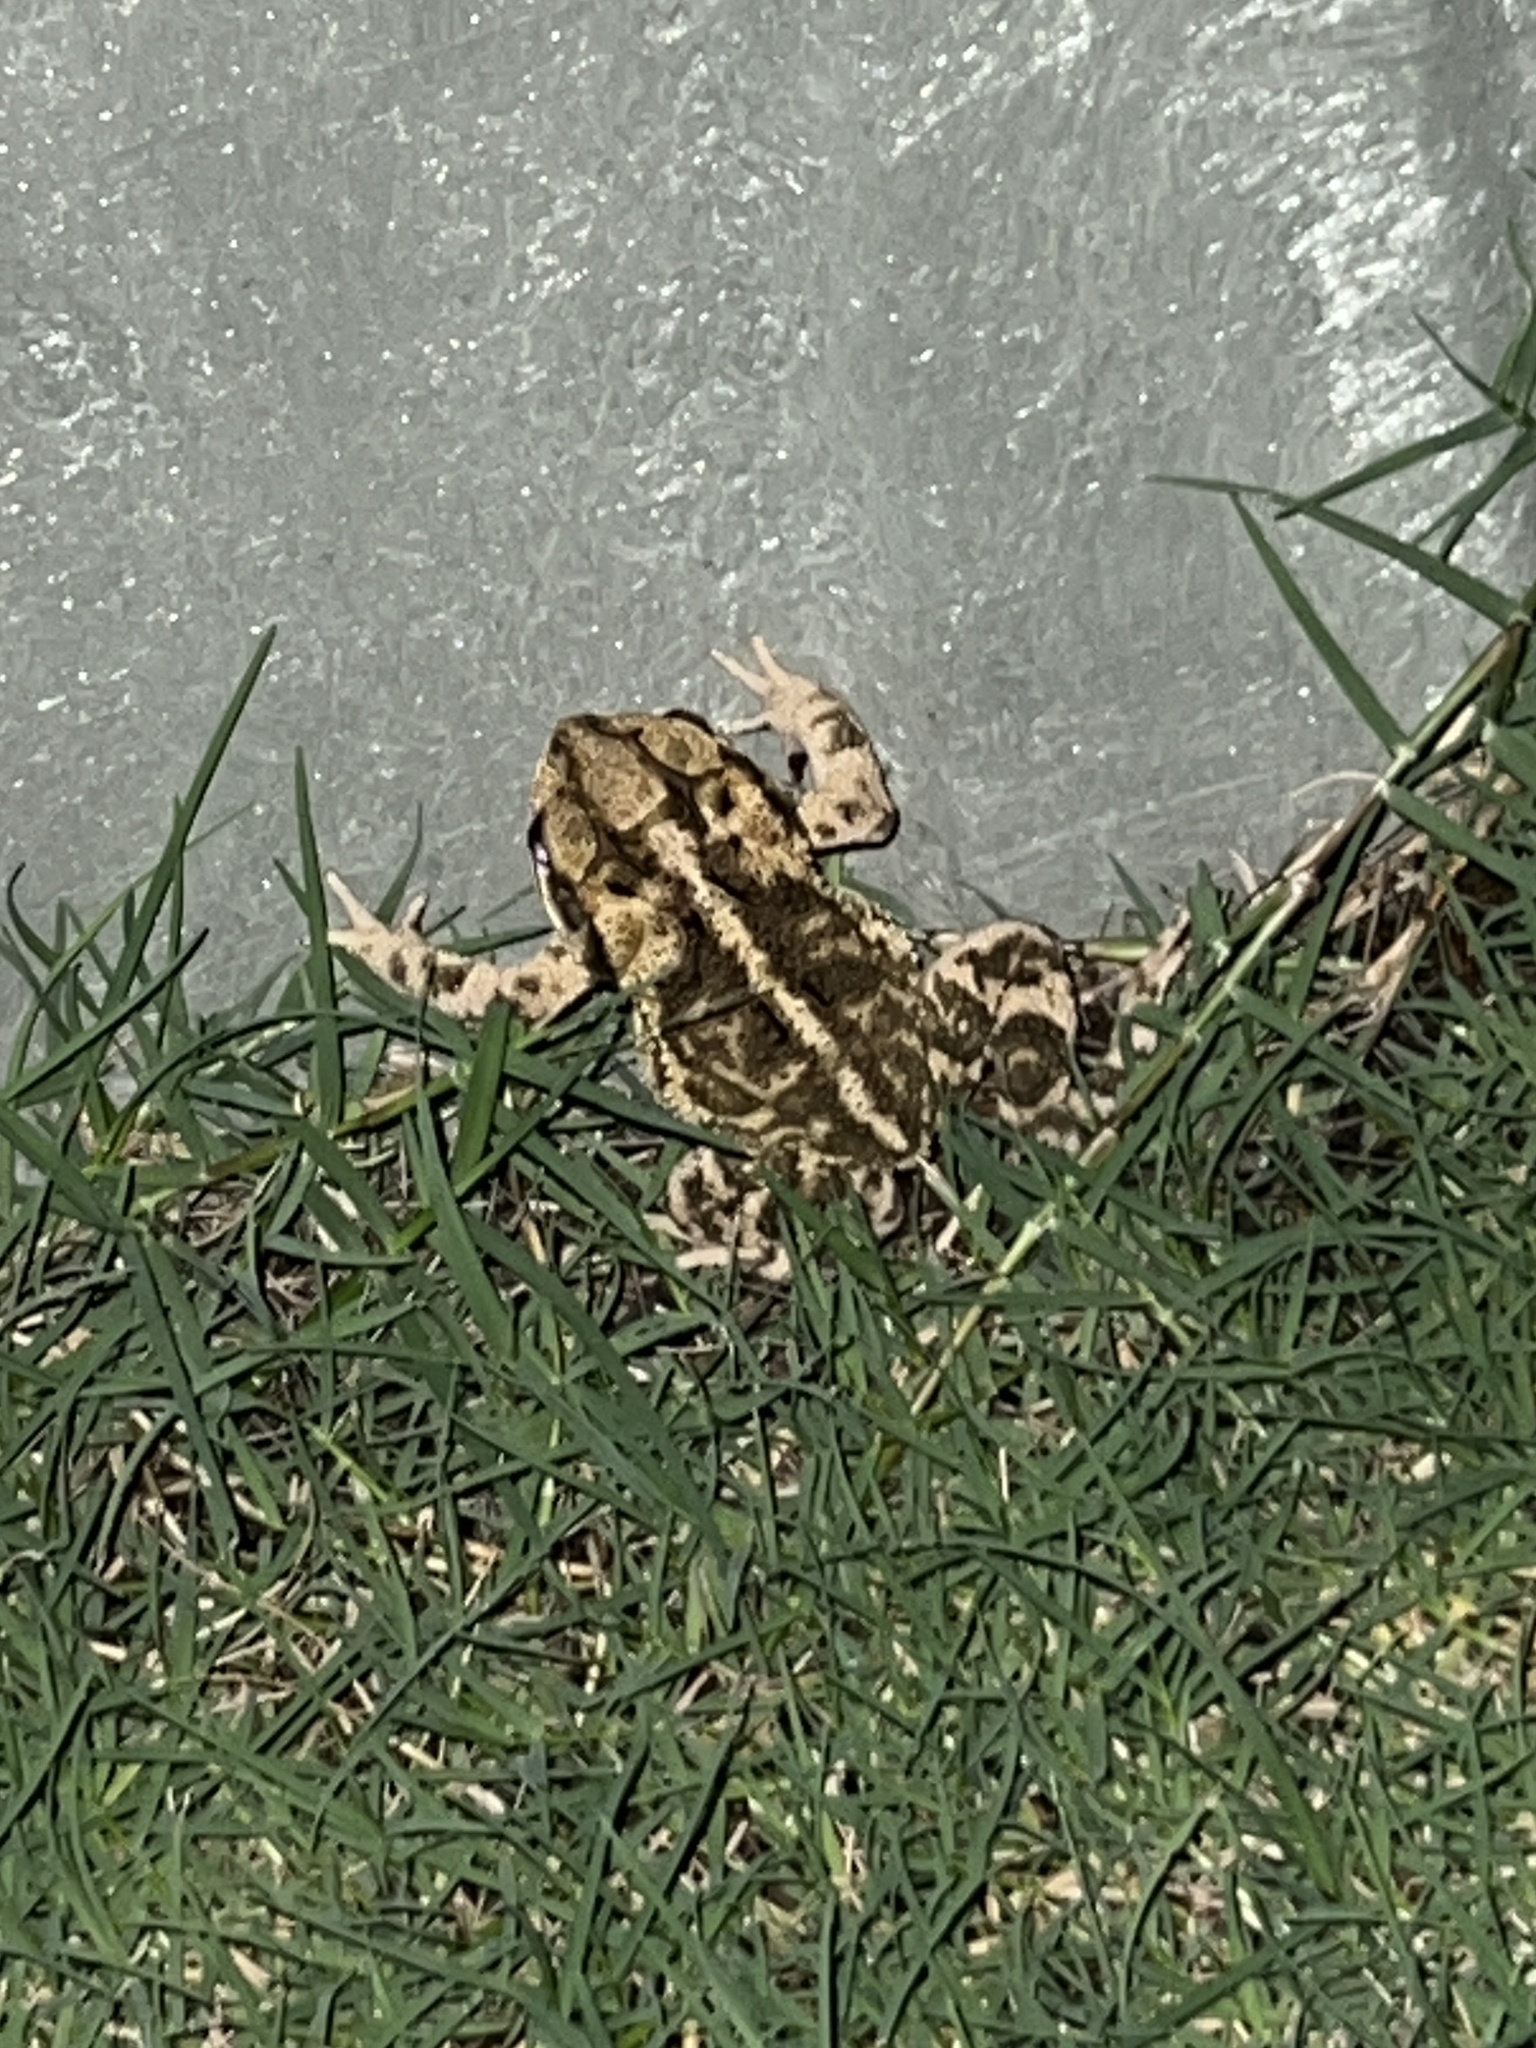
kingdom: Animalia
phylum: Chordata
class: Amphibia
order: Anura
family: Bufonidae
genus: Incilius
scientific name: Incilius nebulifer
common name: Gulf coast toad
